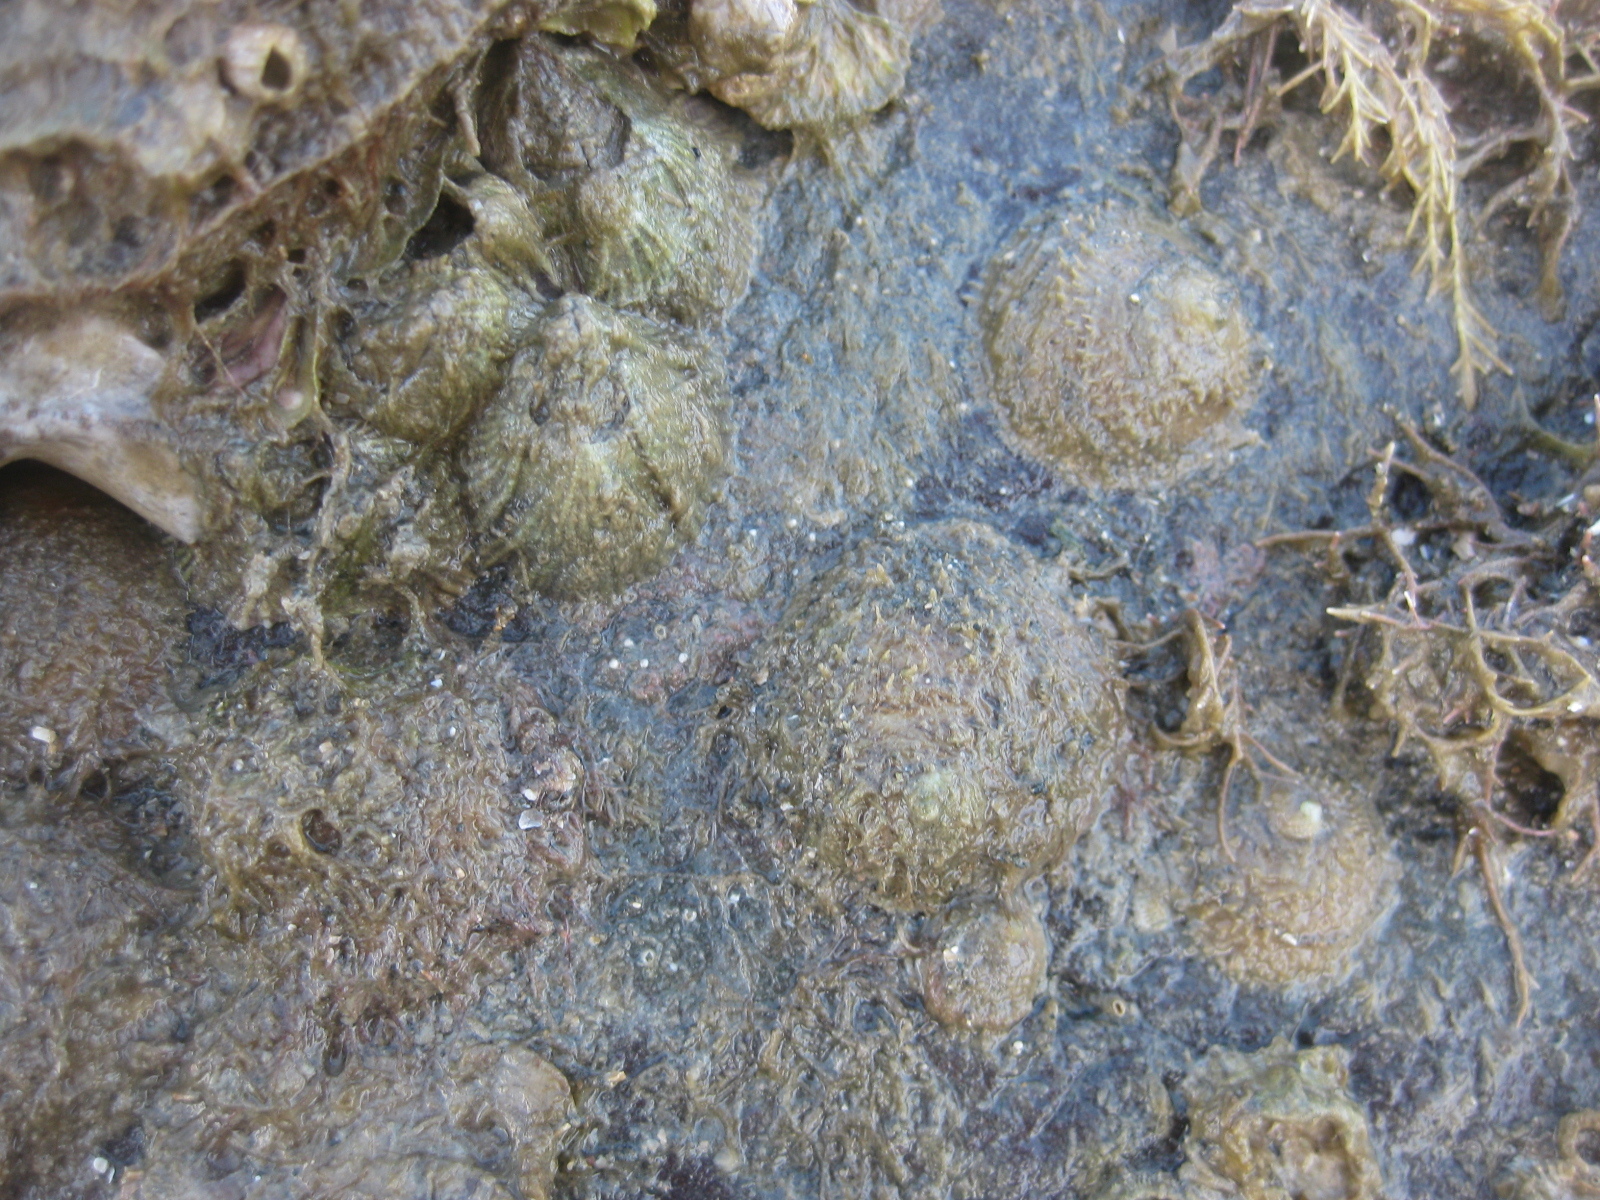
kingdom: Animalia
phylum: Mollusca
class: Gastropoda
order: Littorinimorpha
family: Calyptraeidae
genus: Sigapatella
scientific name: Sigapatella novaezelandiae
